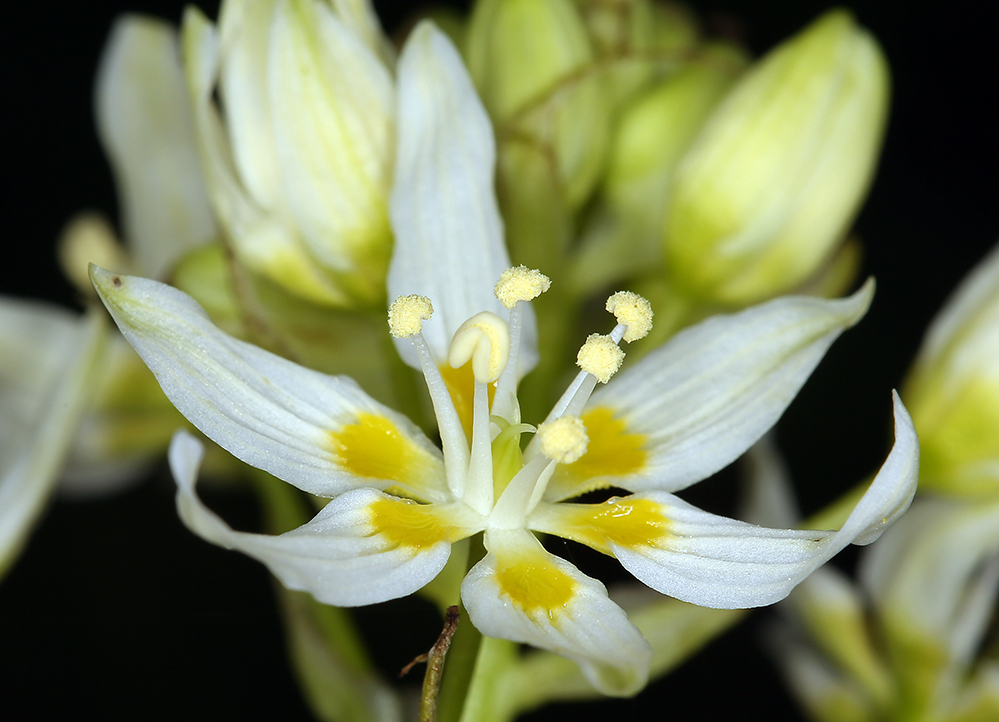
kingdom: Plantae
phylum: Tracheophyta
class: Liliopsida
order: Liliales
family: Melanthiaceae
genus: Toxicoscordion
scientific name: Toxicoscordion fremontii
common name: Fremont's death camas
